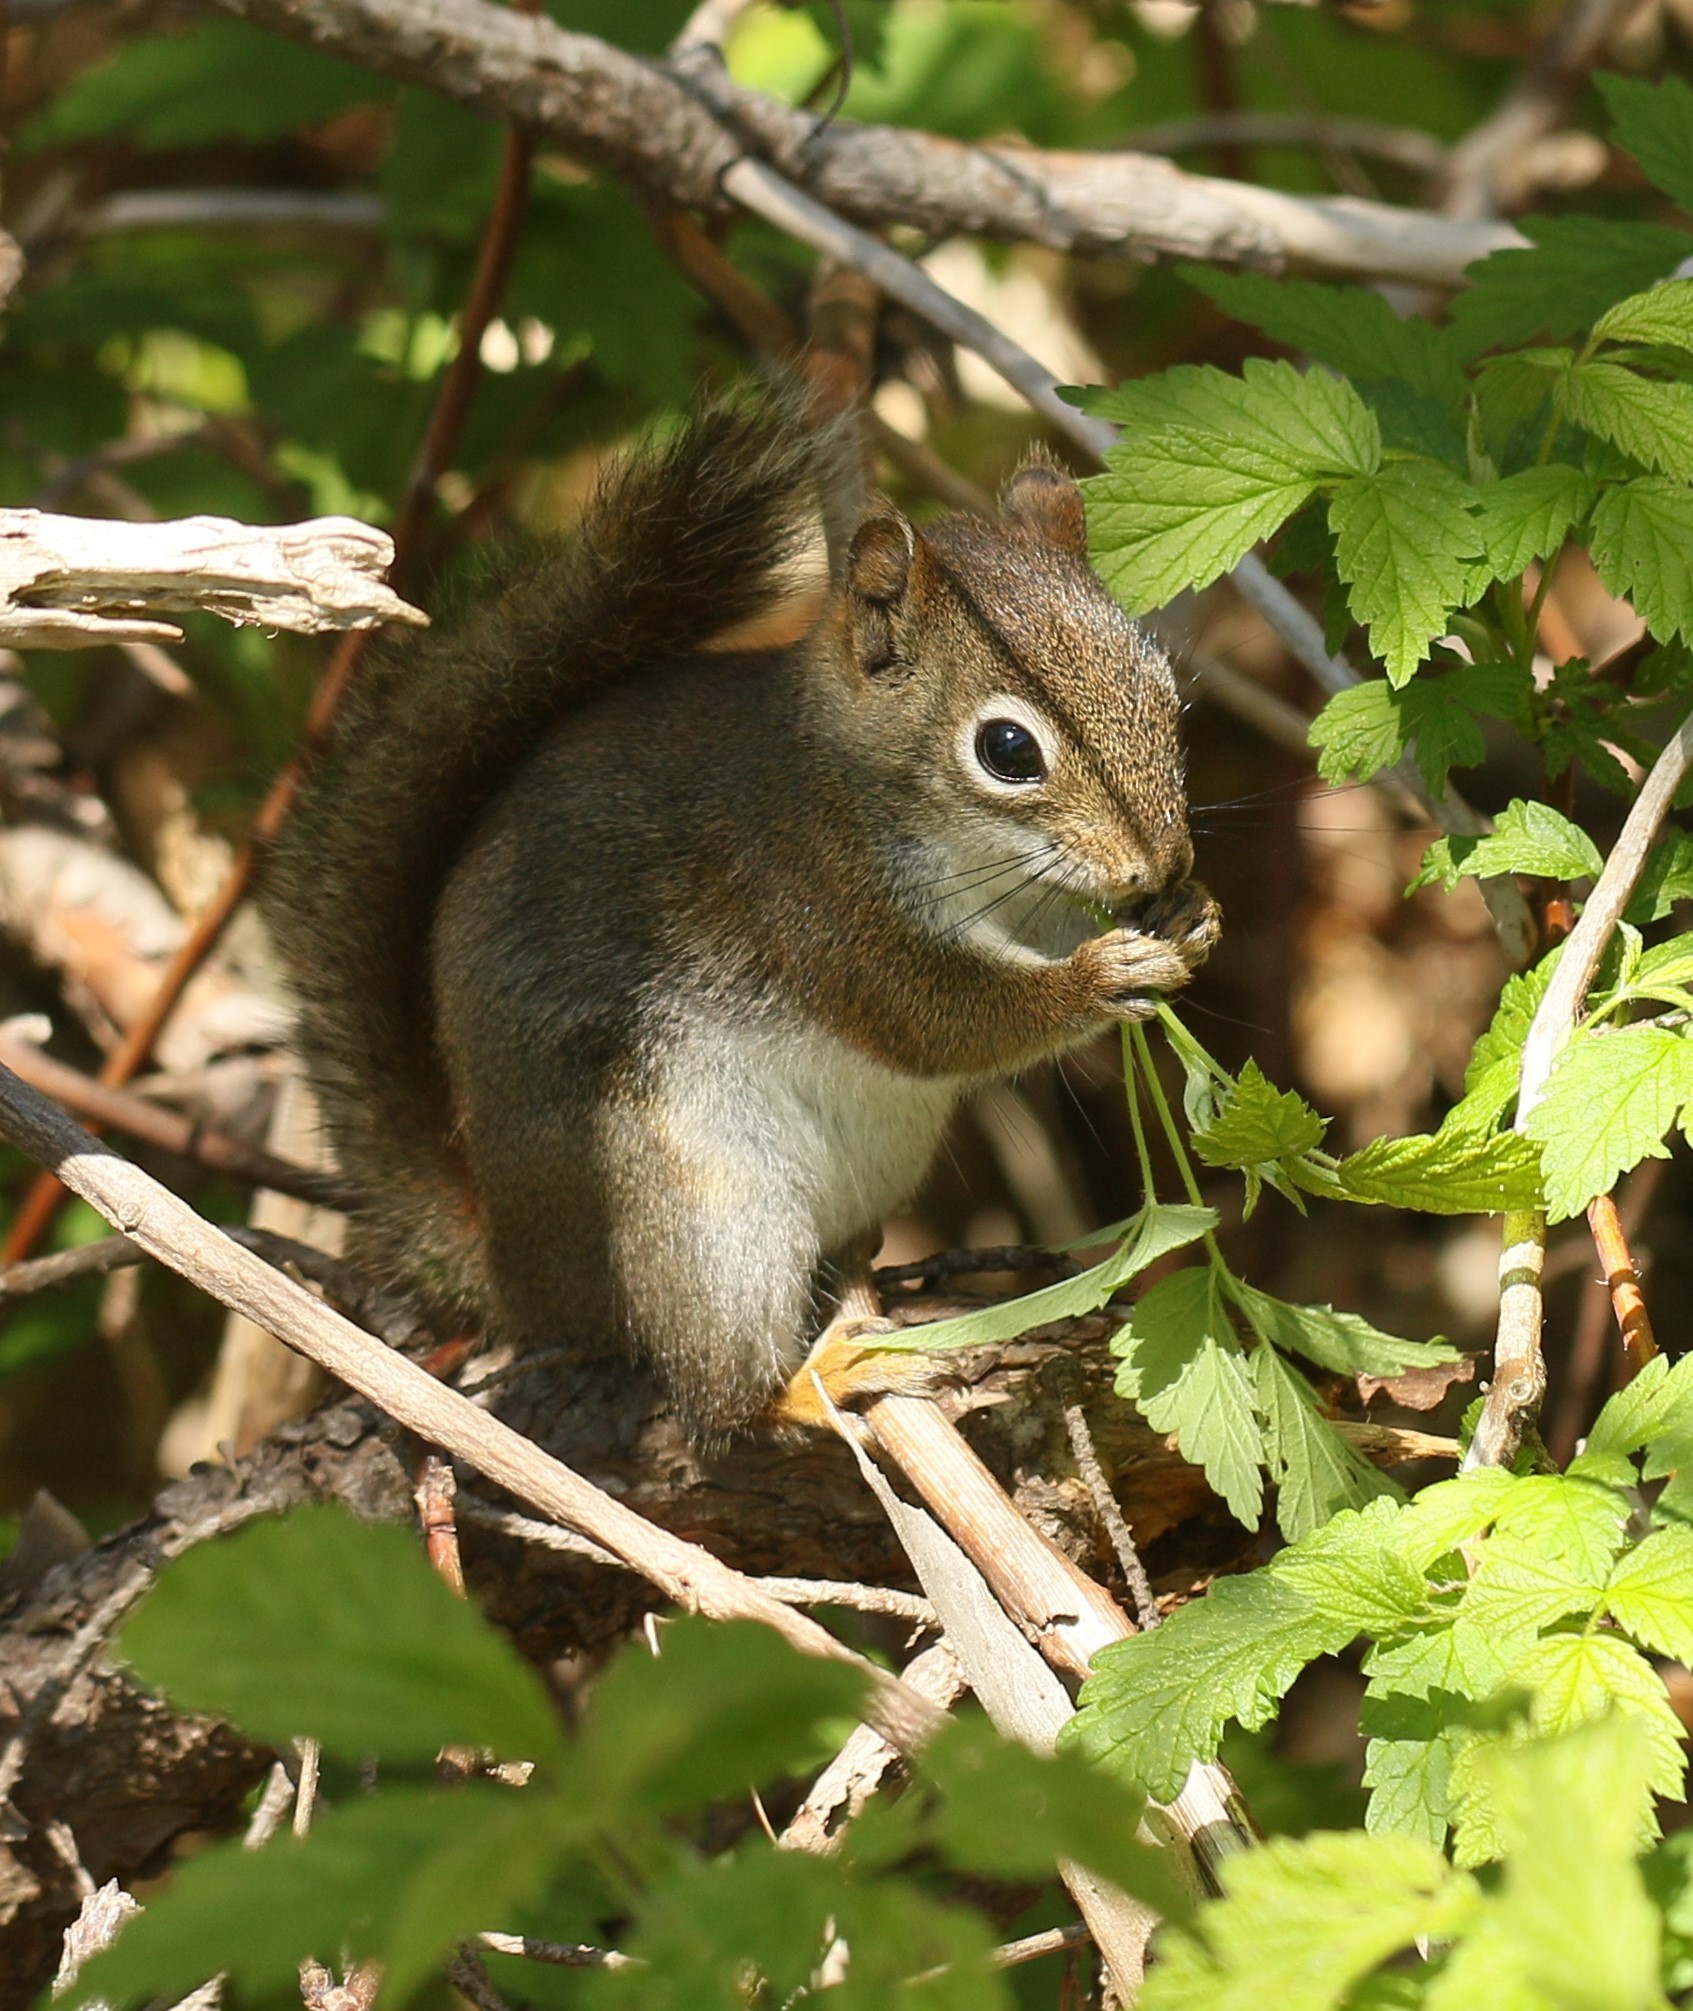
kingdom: Animalia
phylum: Chordata
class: Mammalia
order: Rodentia
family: Sciuridae
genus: Tamiasciurus
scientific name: Tamiasciurus hudsonicus
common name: Red squirrel
